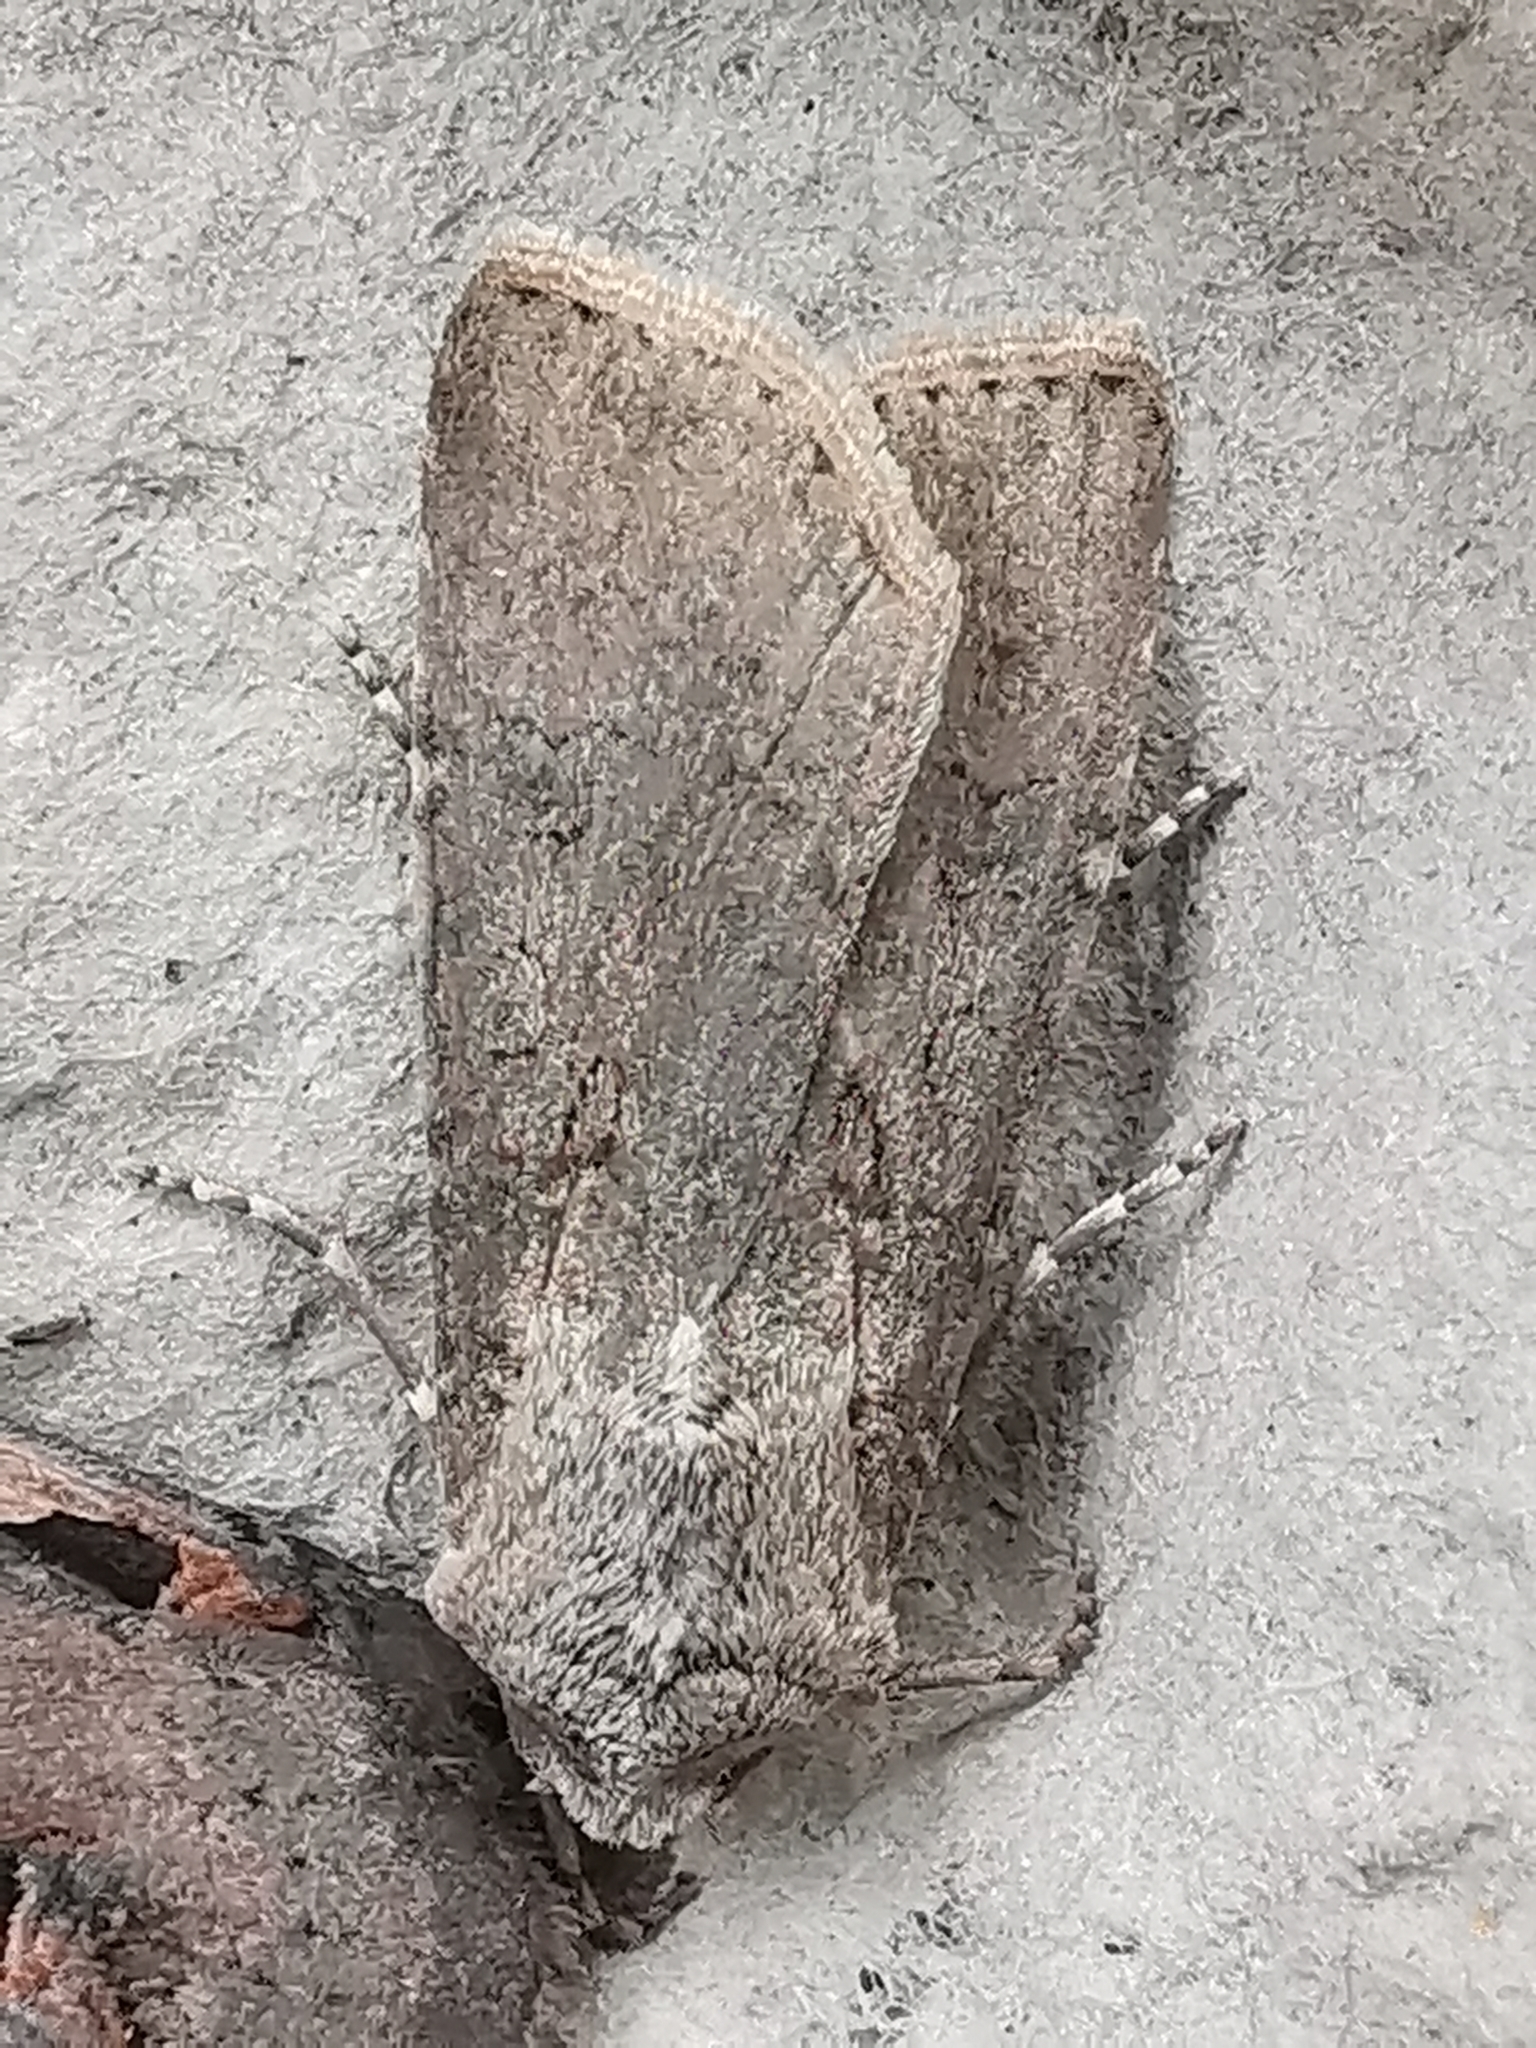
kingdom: Animalia
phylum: Arthropoda
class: Insecta
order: Lepidoptera
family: Noctuidae
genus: Agrotis
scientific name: Agrotis segetum
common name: Turnip moth
